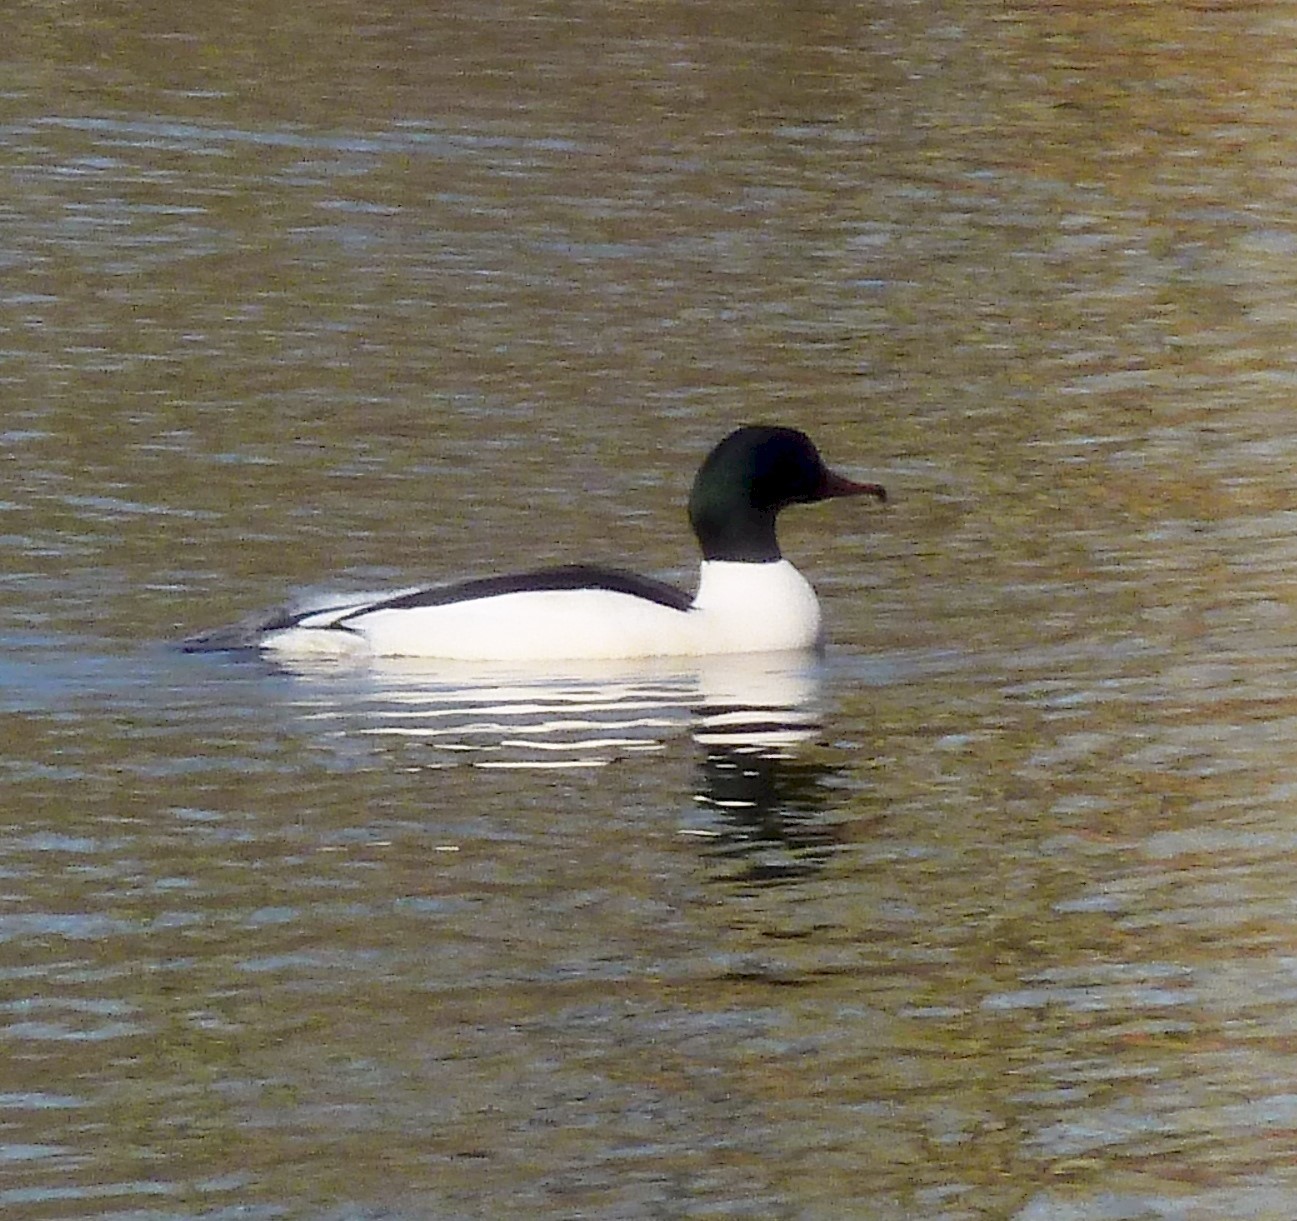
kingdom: Animalia
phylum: Chordata
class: Aves
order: Anseriformes
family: Anatidae
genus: Mergus
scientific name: Mergus merganser
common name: Common merganser
